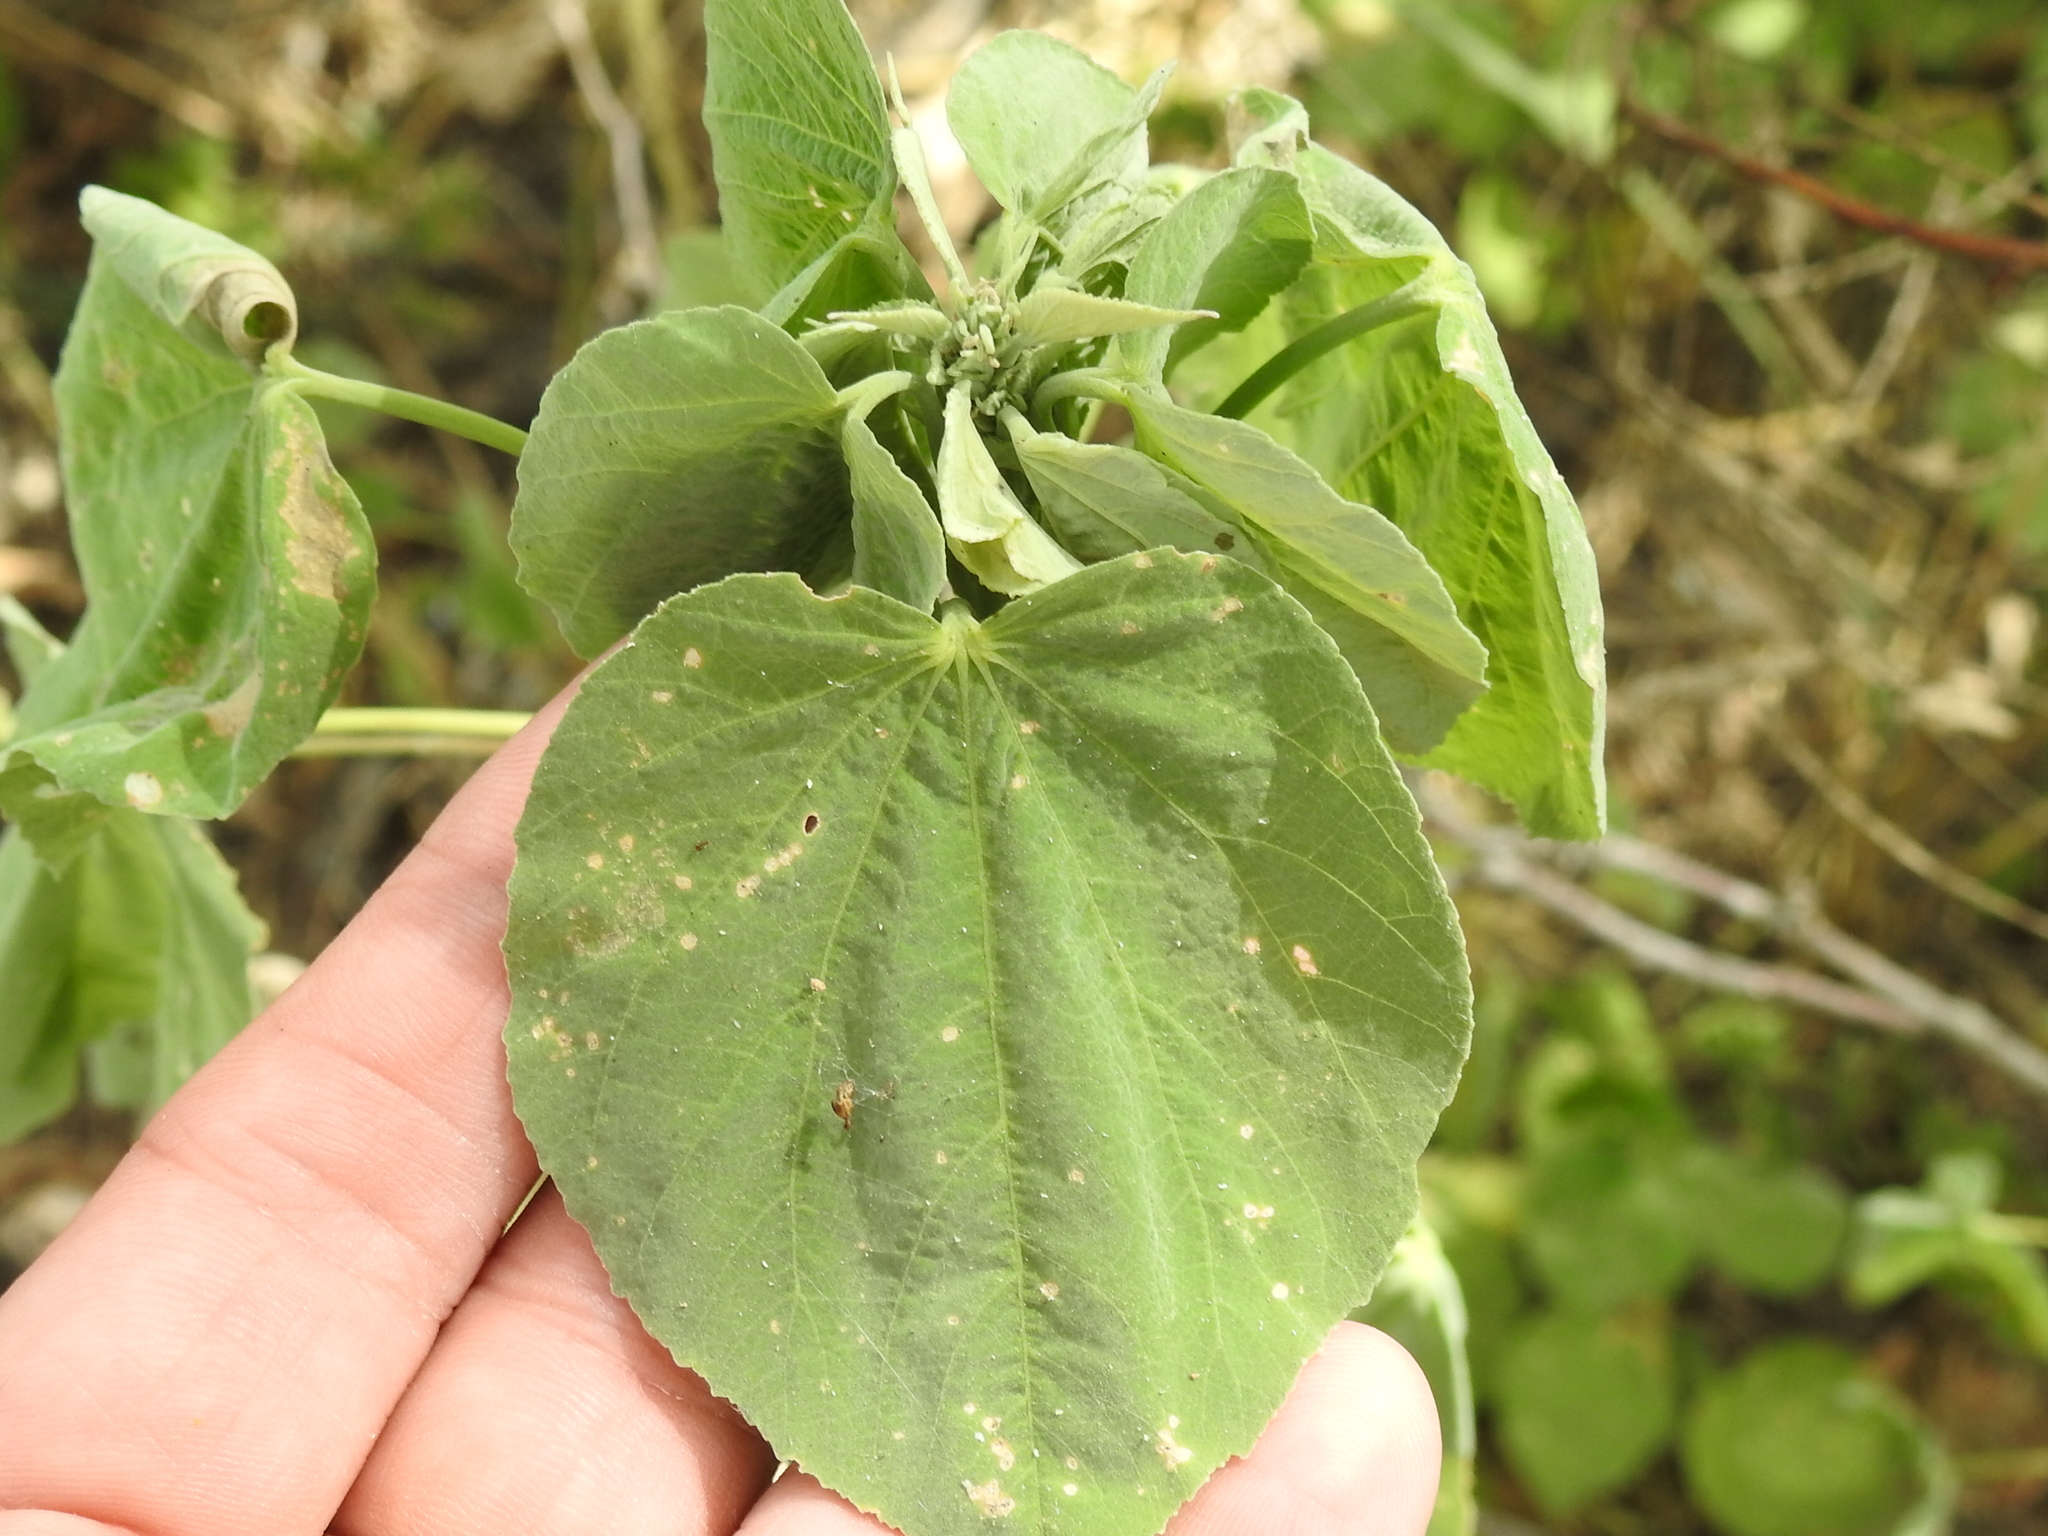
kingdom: Plantae
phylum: Tracheophyta
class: Magnoliopsida
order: Malvales
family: Malvaceae
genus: Abutilon
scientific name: Abutilon trisulcatum
